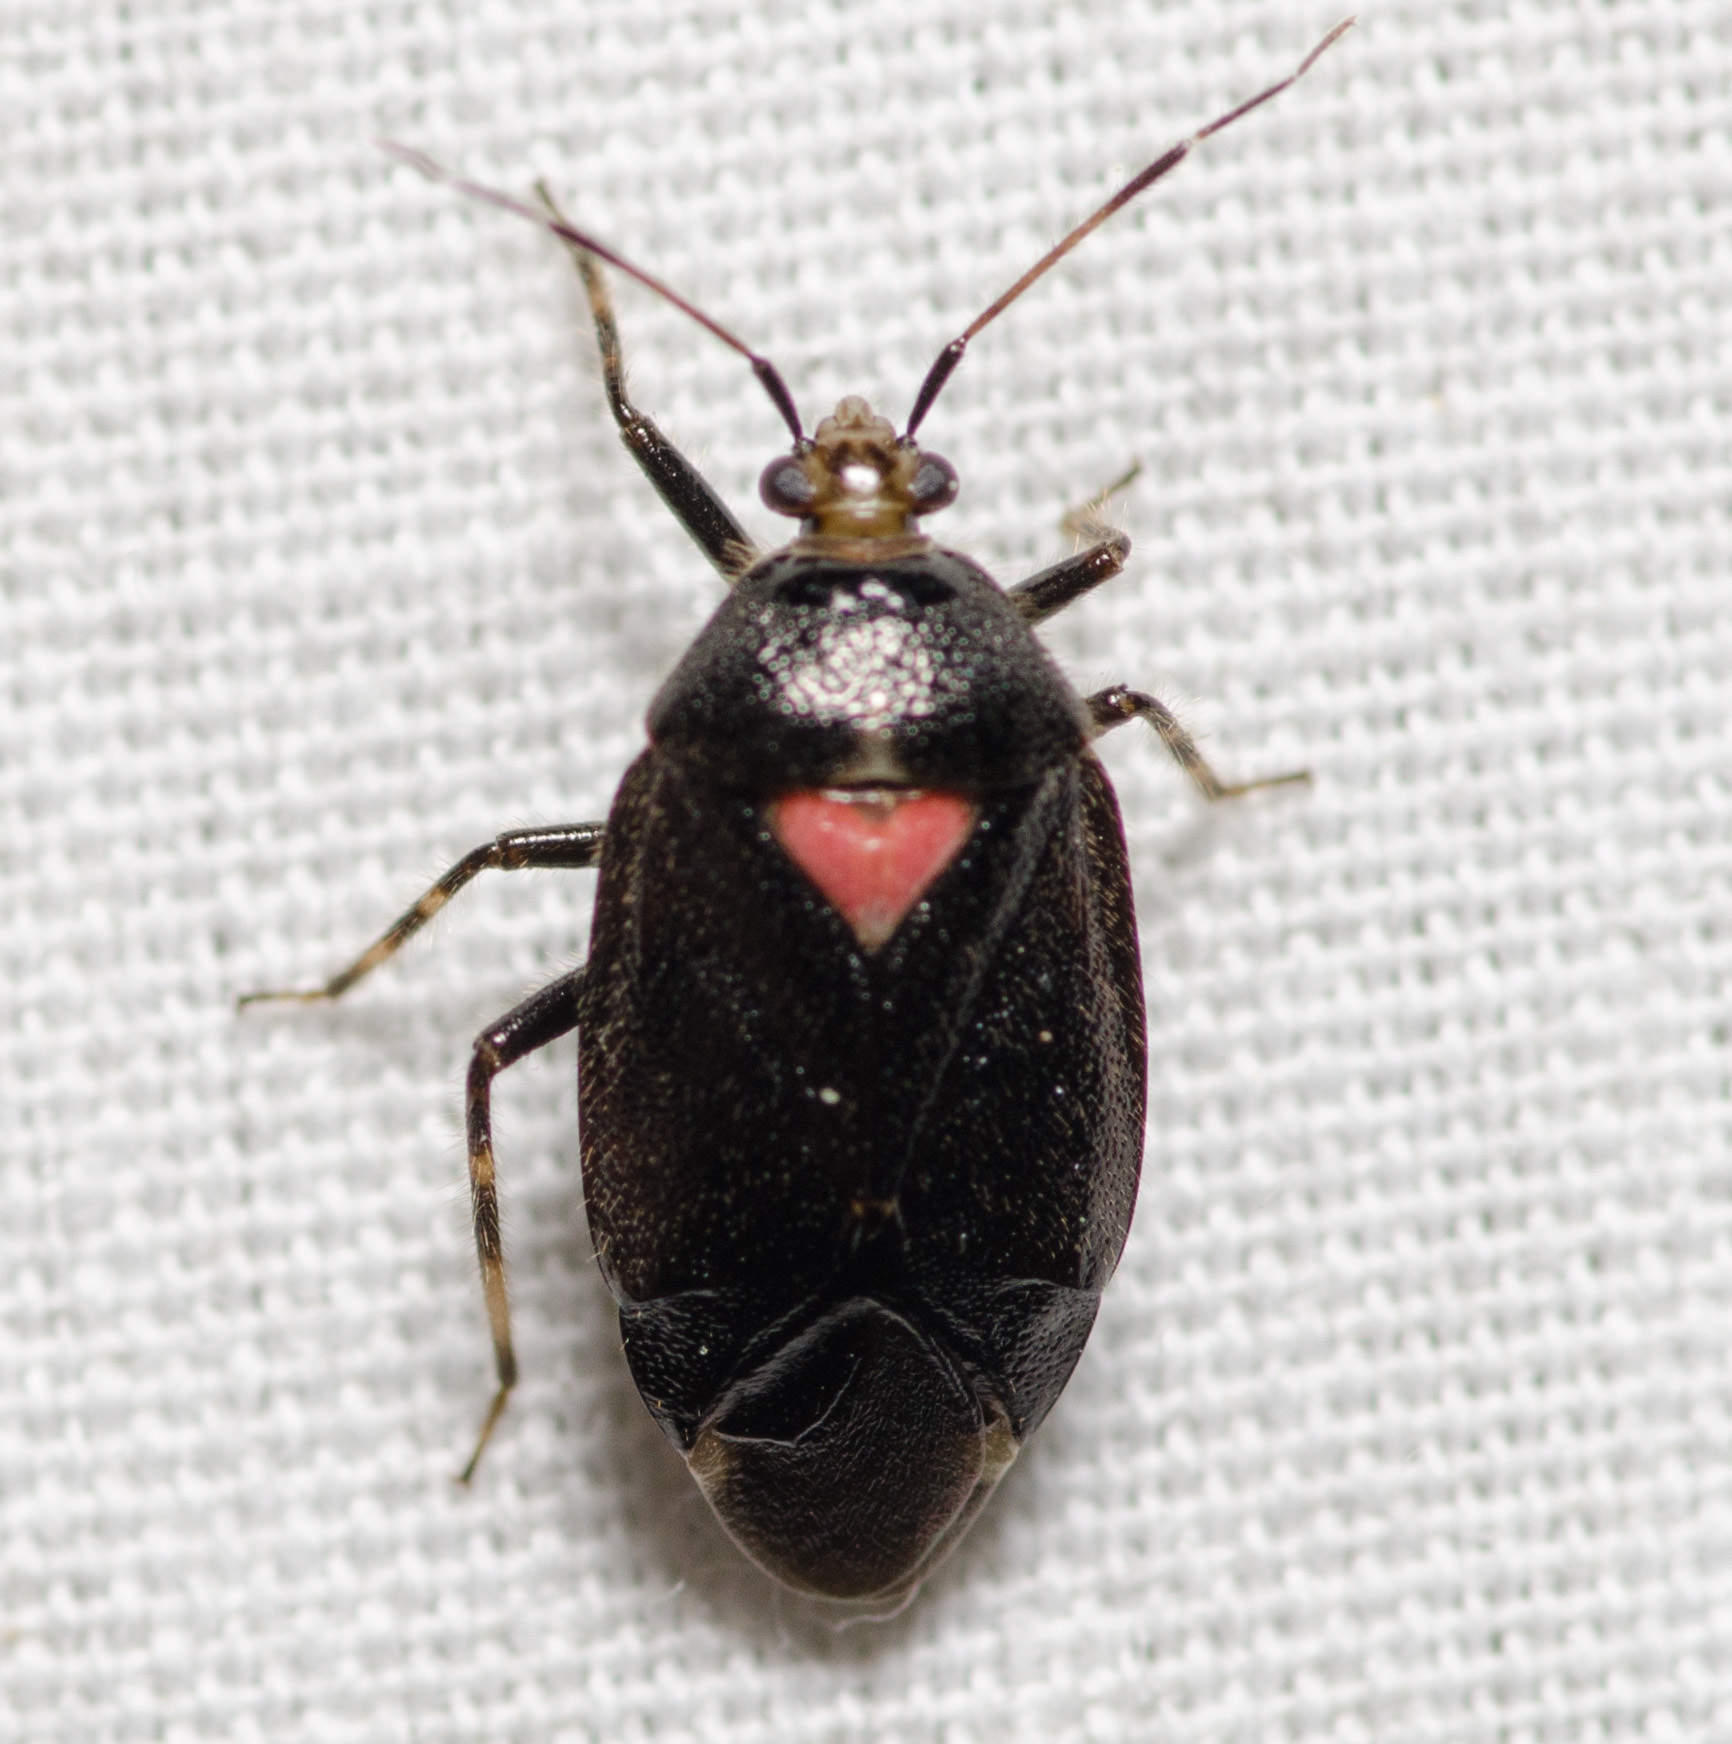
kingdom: Animalia
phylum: Arthropoda
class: Insecta
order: Hemiptera
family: Miridae
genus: Deraeocoris
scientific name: Deraeocoris sayi
